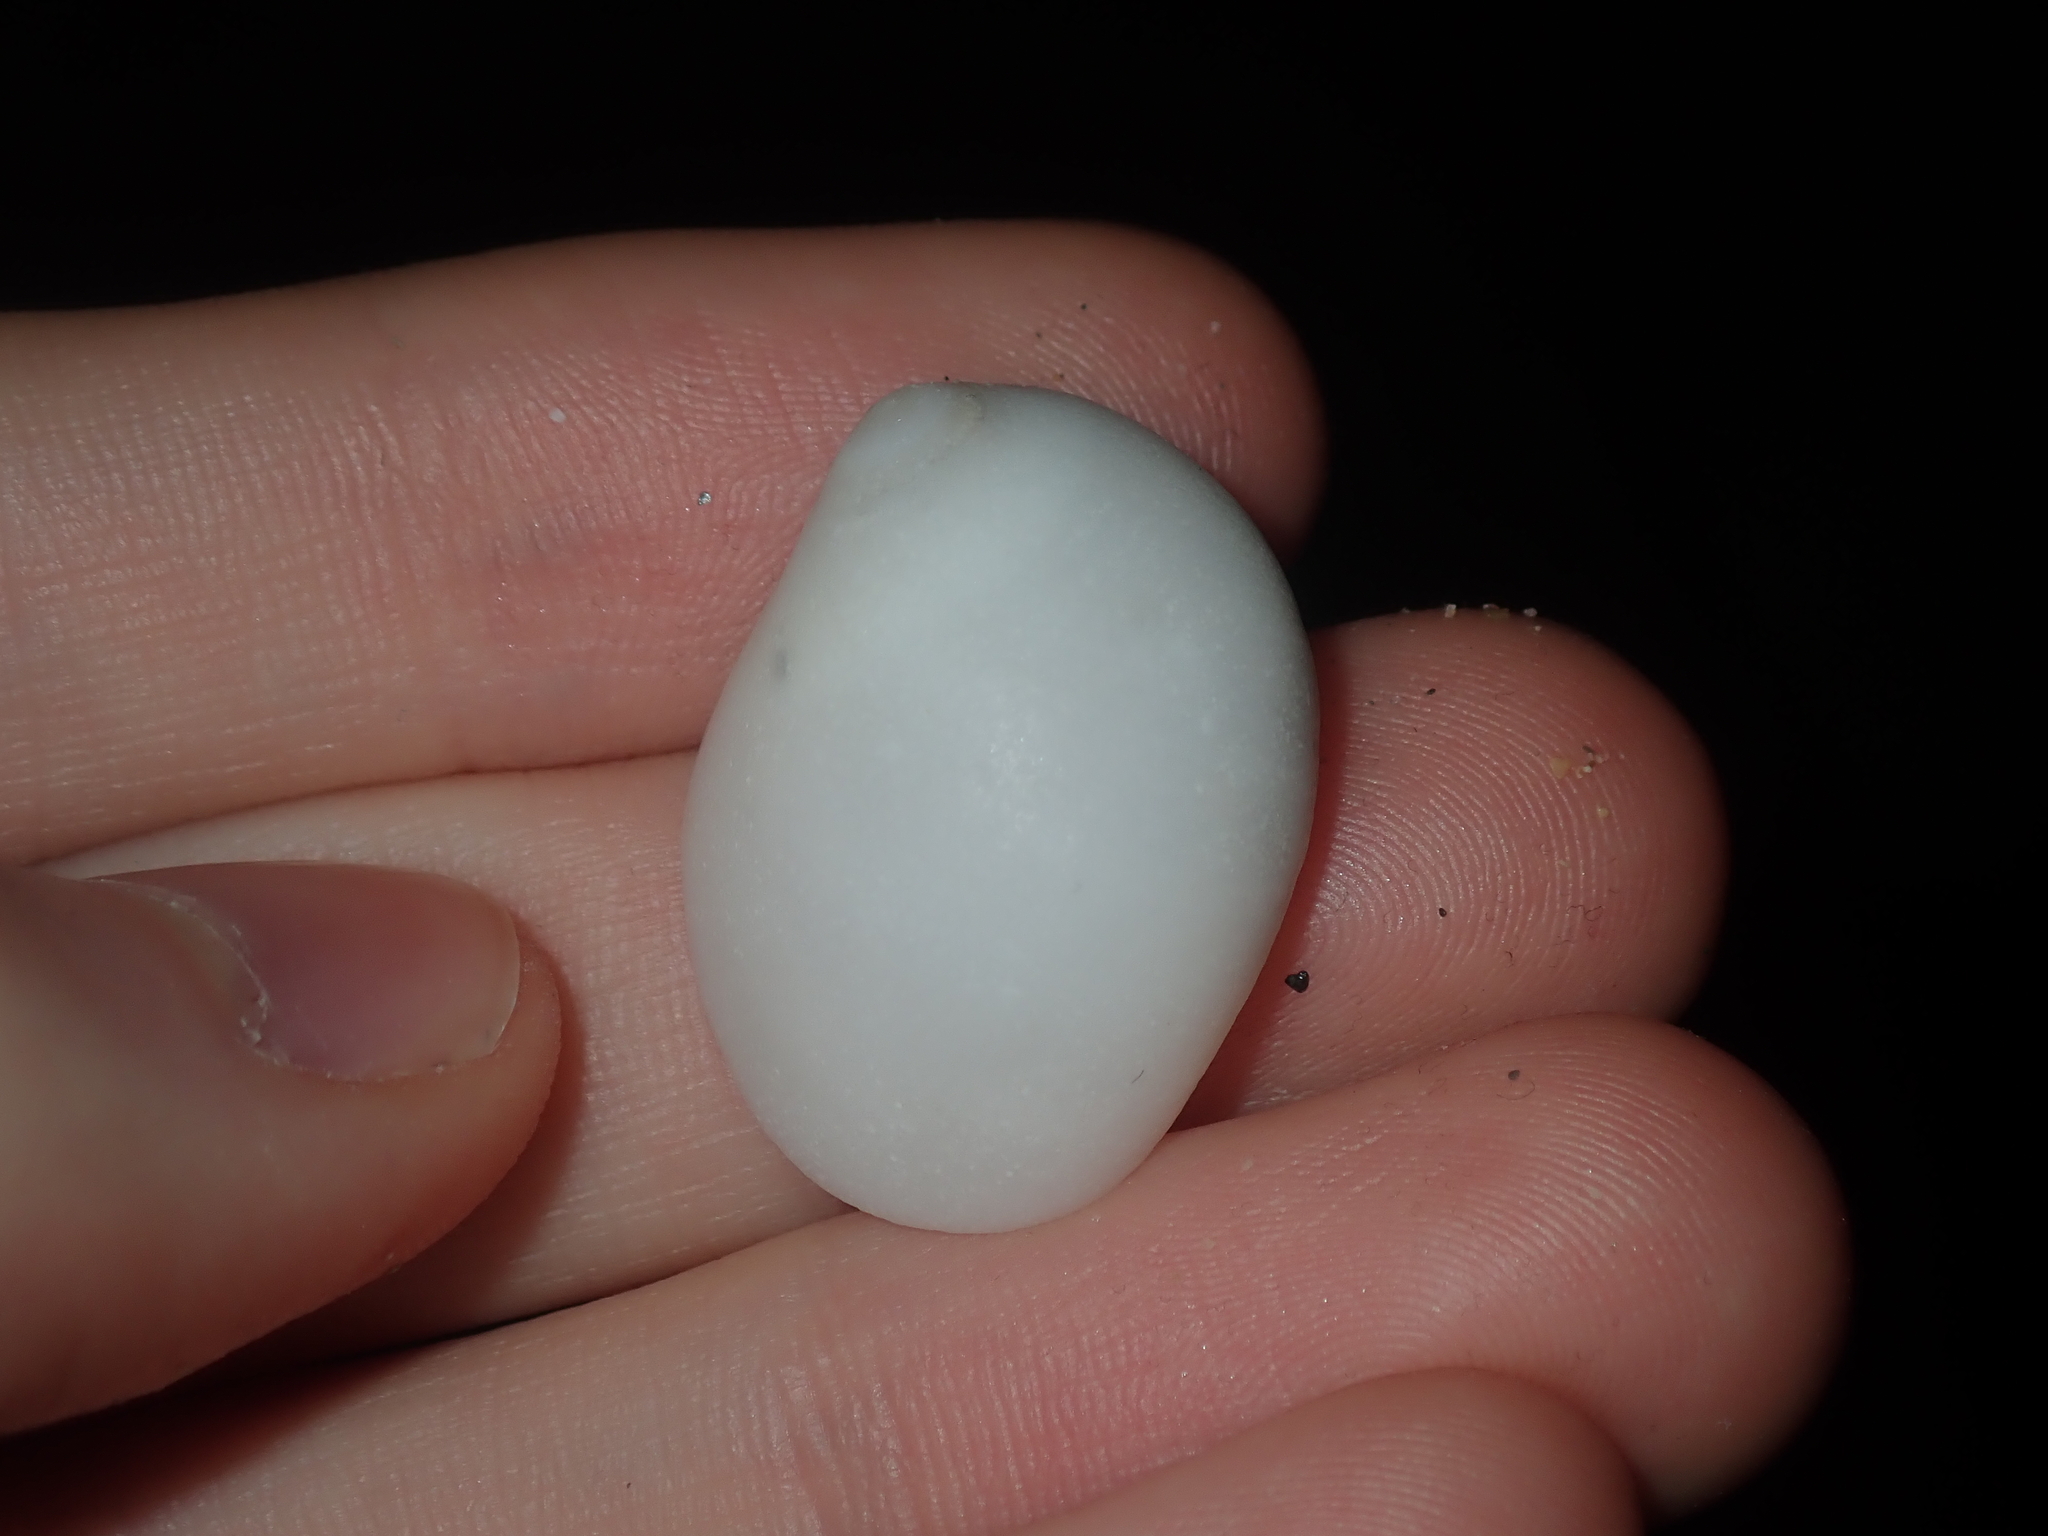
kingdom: Animalia
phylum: Mollusca
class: Gastropoda
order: Littorinimorpha
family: Naticidae
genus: Polinices
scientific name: Polinices mammilla
